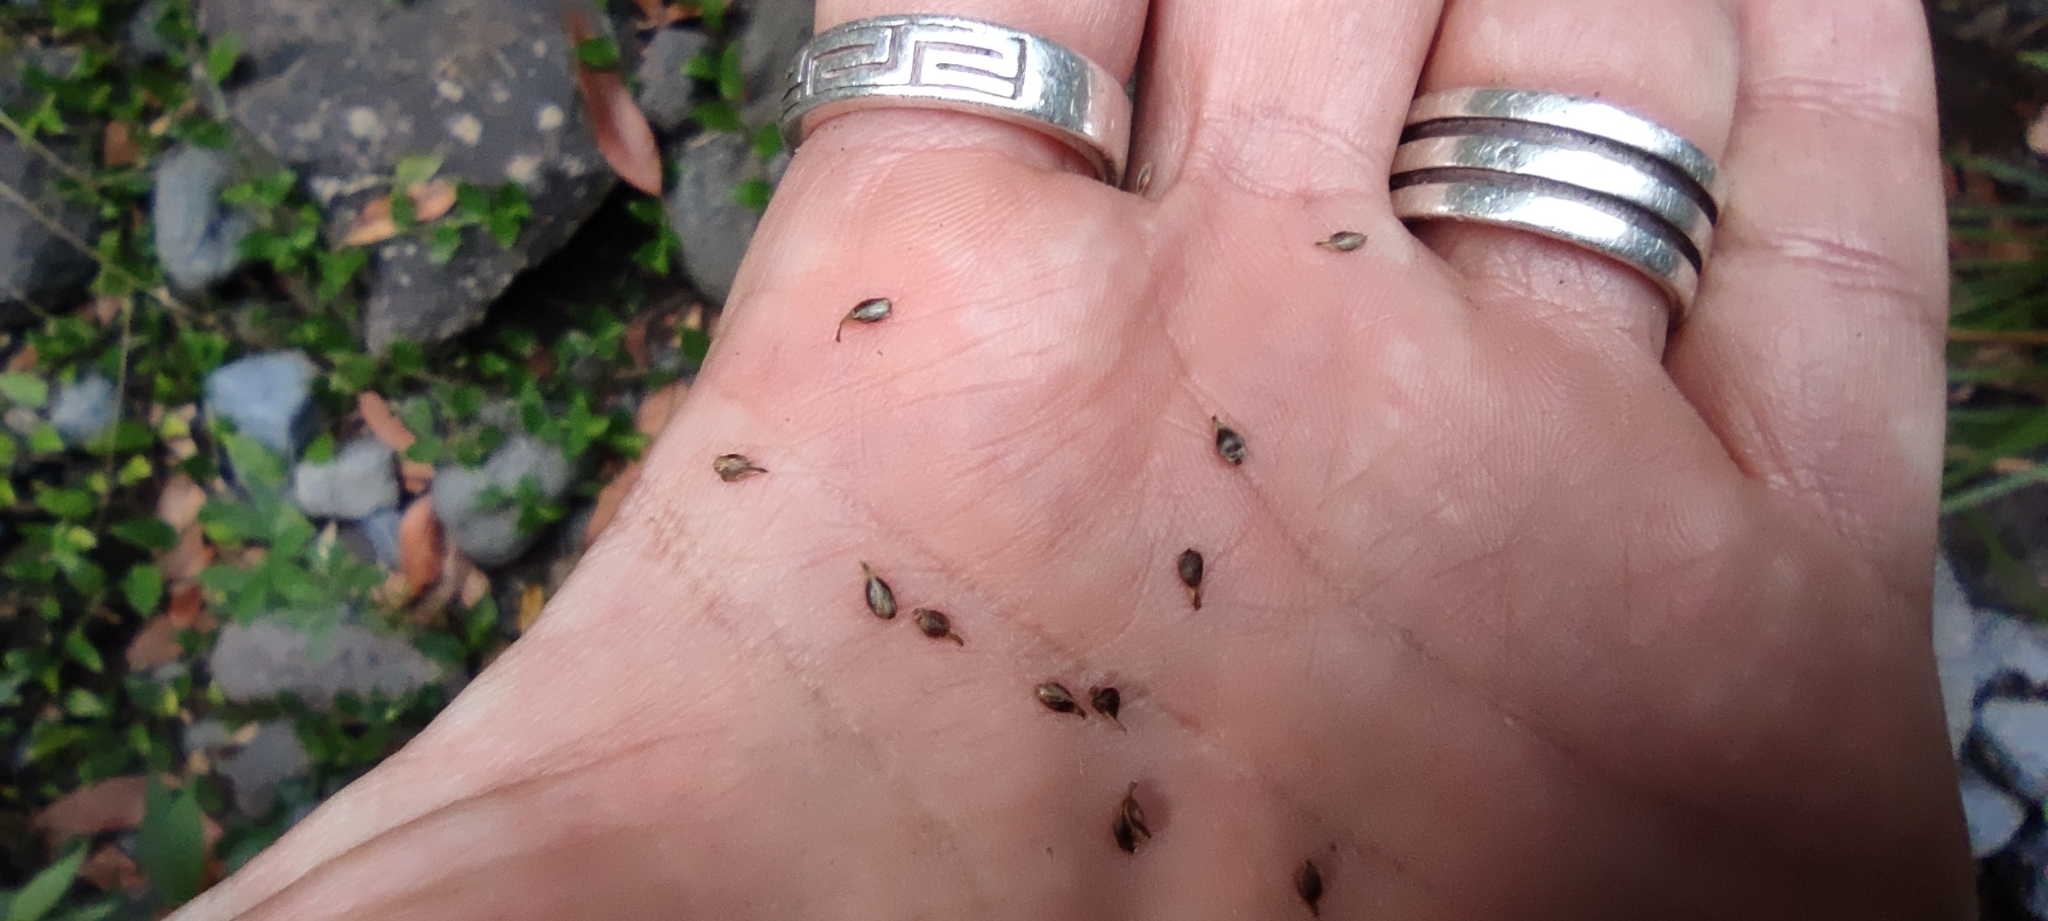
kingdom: Plantae
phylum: Tracheophyta
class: Liliopsida
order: Poales
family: Cyperaceae
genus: Carex
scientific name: Carex canariensis
